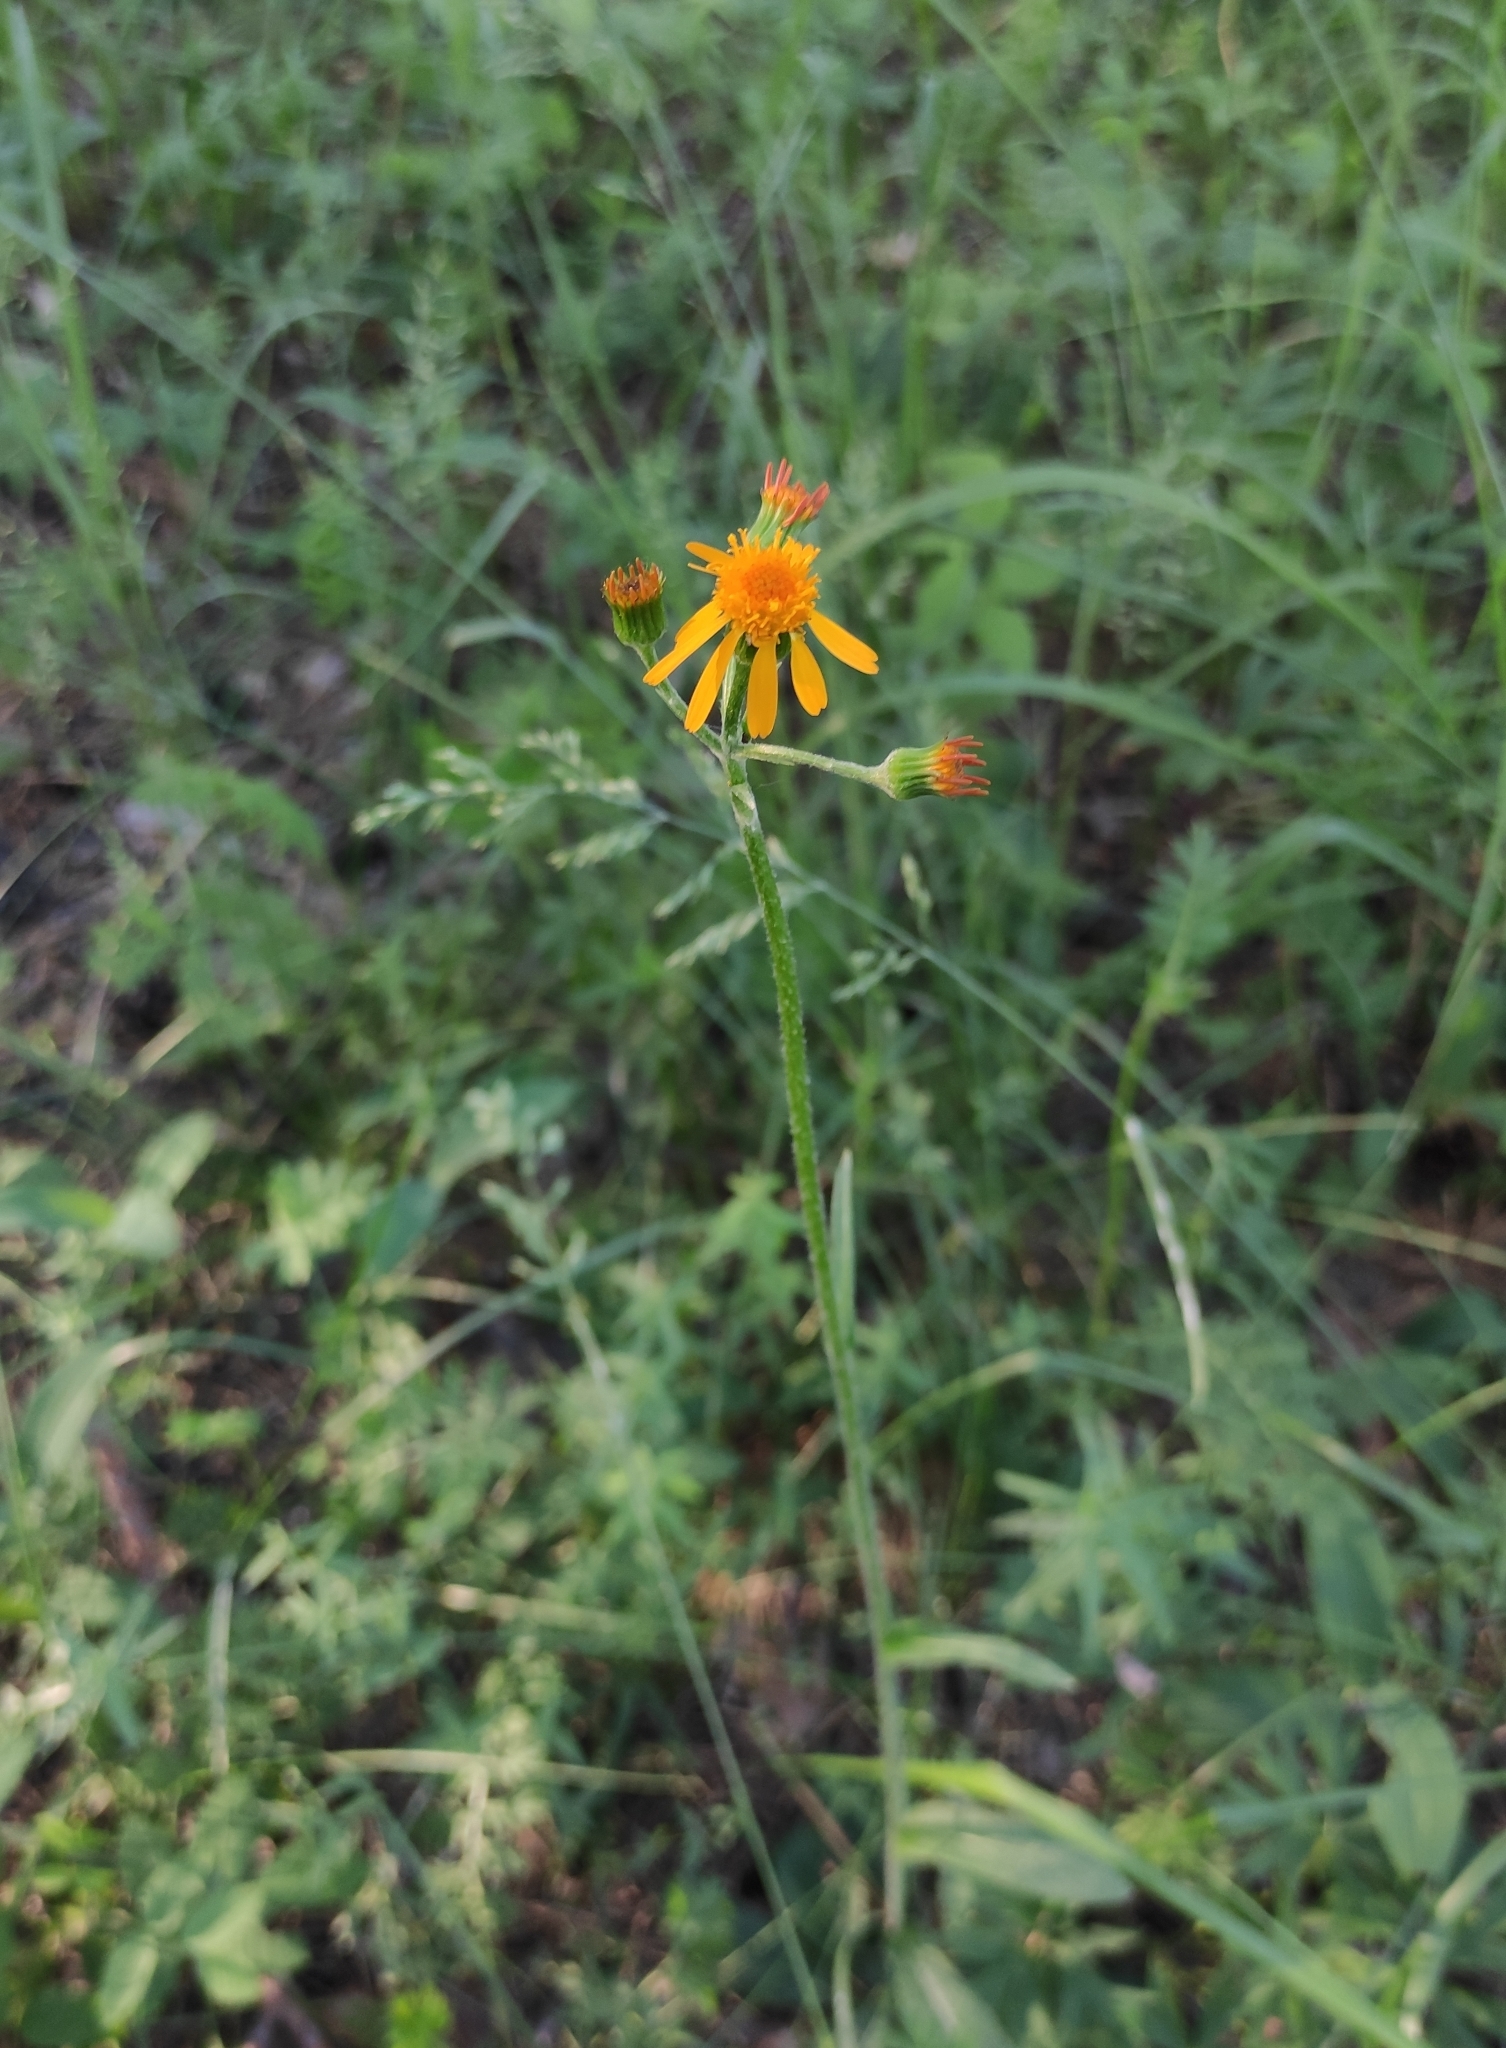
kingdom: Plantae
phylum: Tracheophyta
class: Magnoliopsida
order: Asterales
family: Asteraceae
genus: Tephroseris
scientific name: Tephroseris porphyrantha
